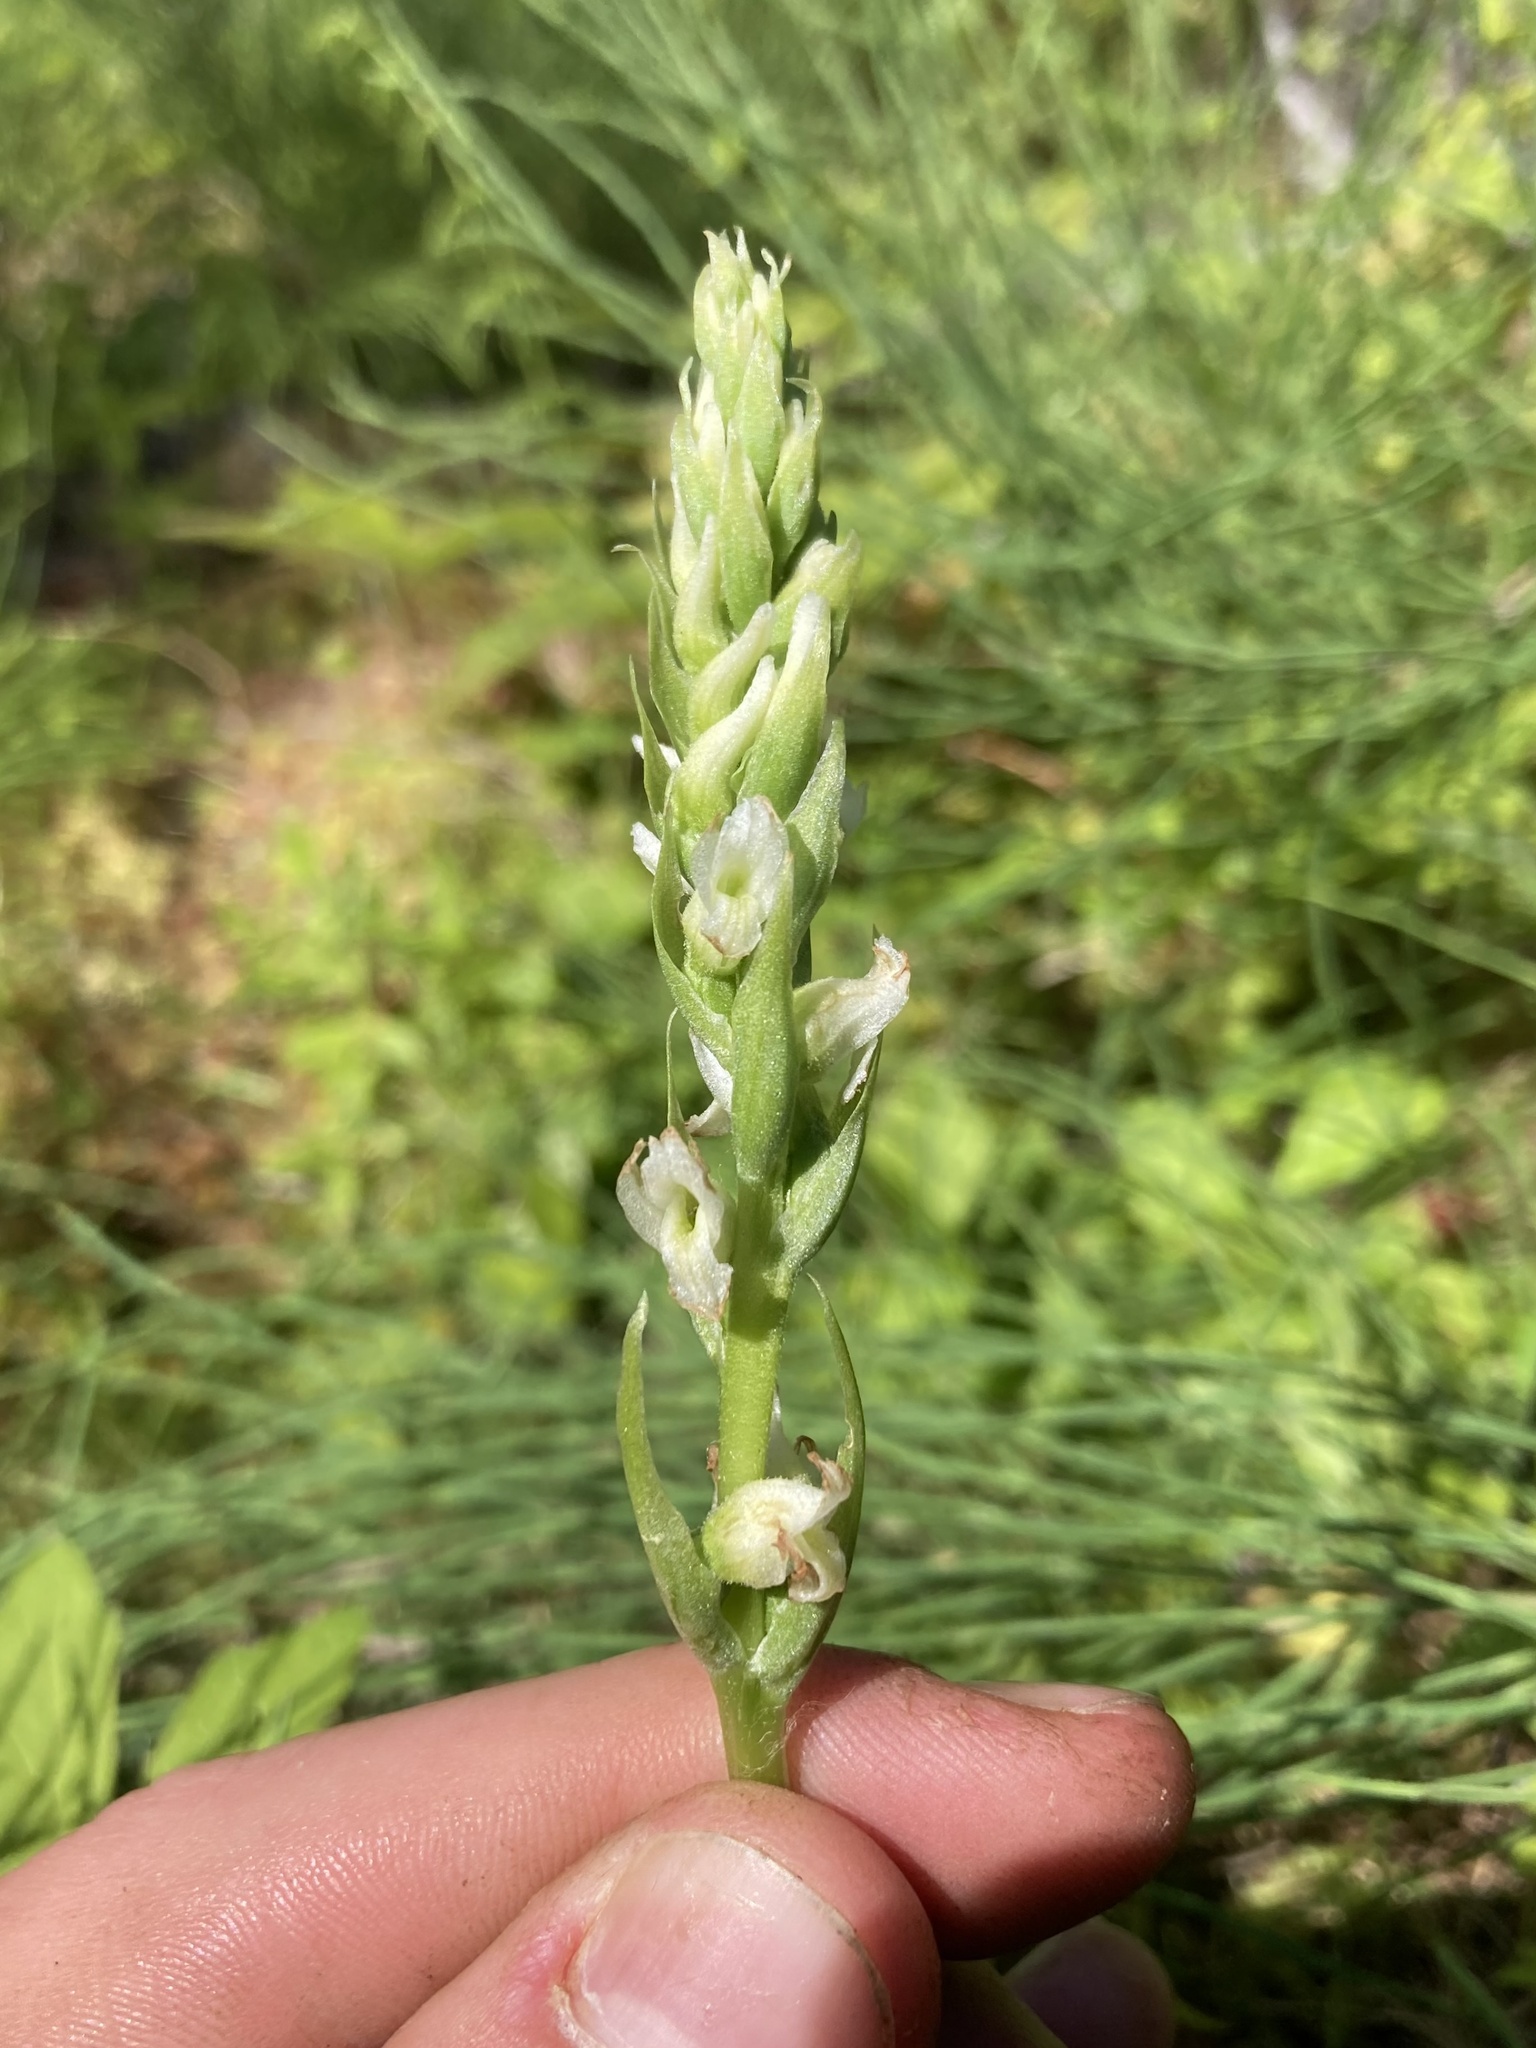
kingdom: Plantae
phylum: Tracheophyta
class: Liliopsida
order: Asparagales
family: Orchidaceae
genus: Spiranthes
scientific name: Spiranthes romanzoffiana
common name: Irish lady's-tresses
